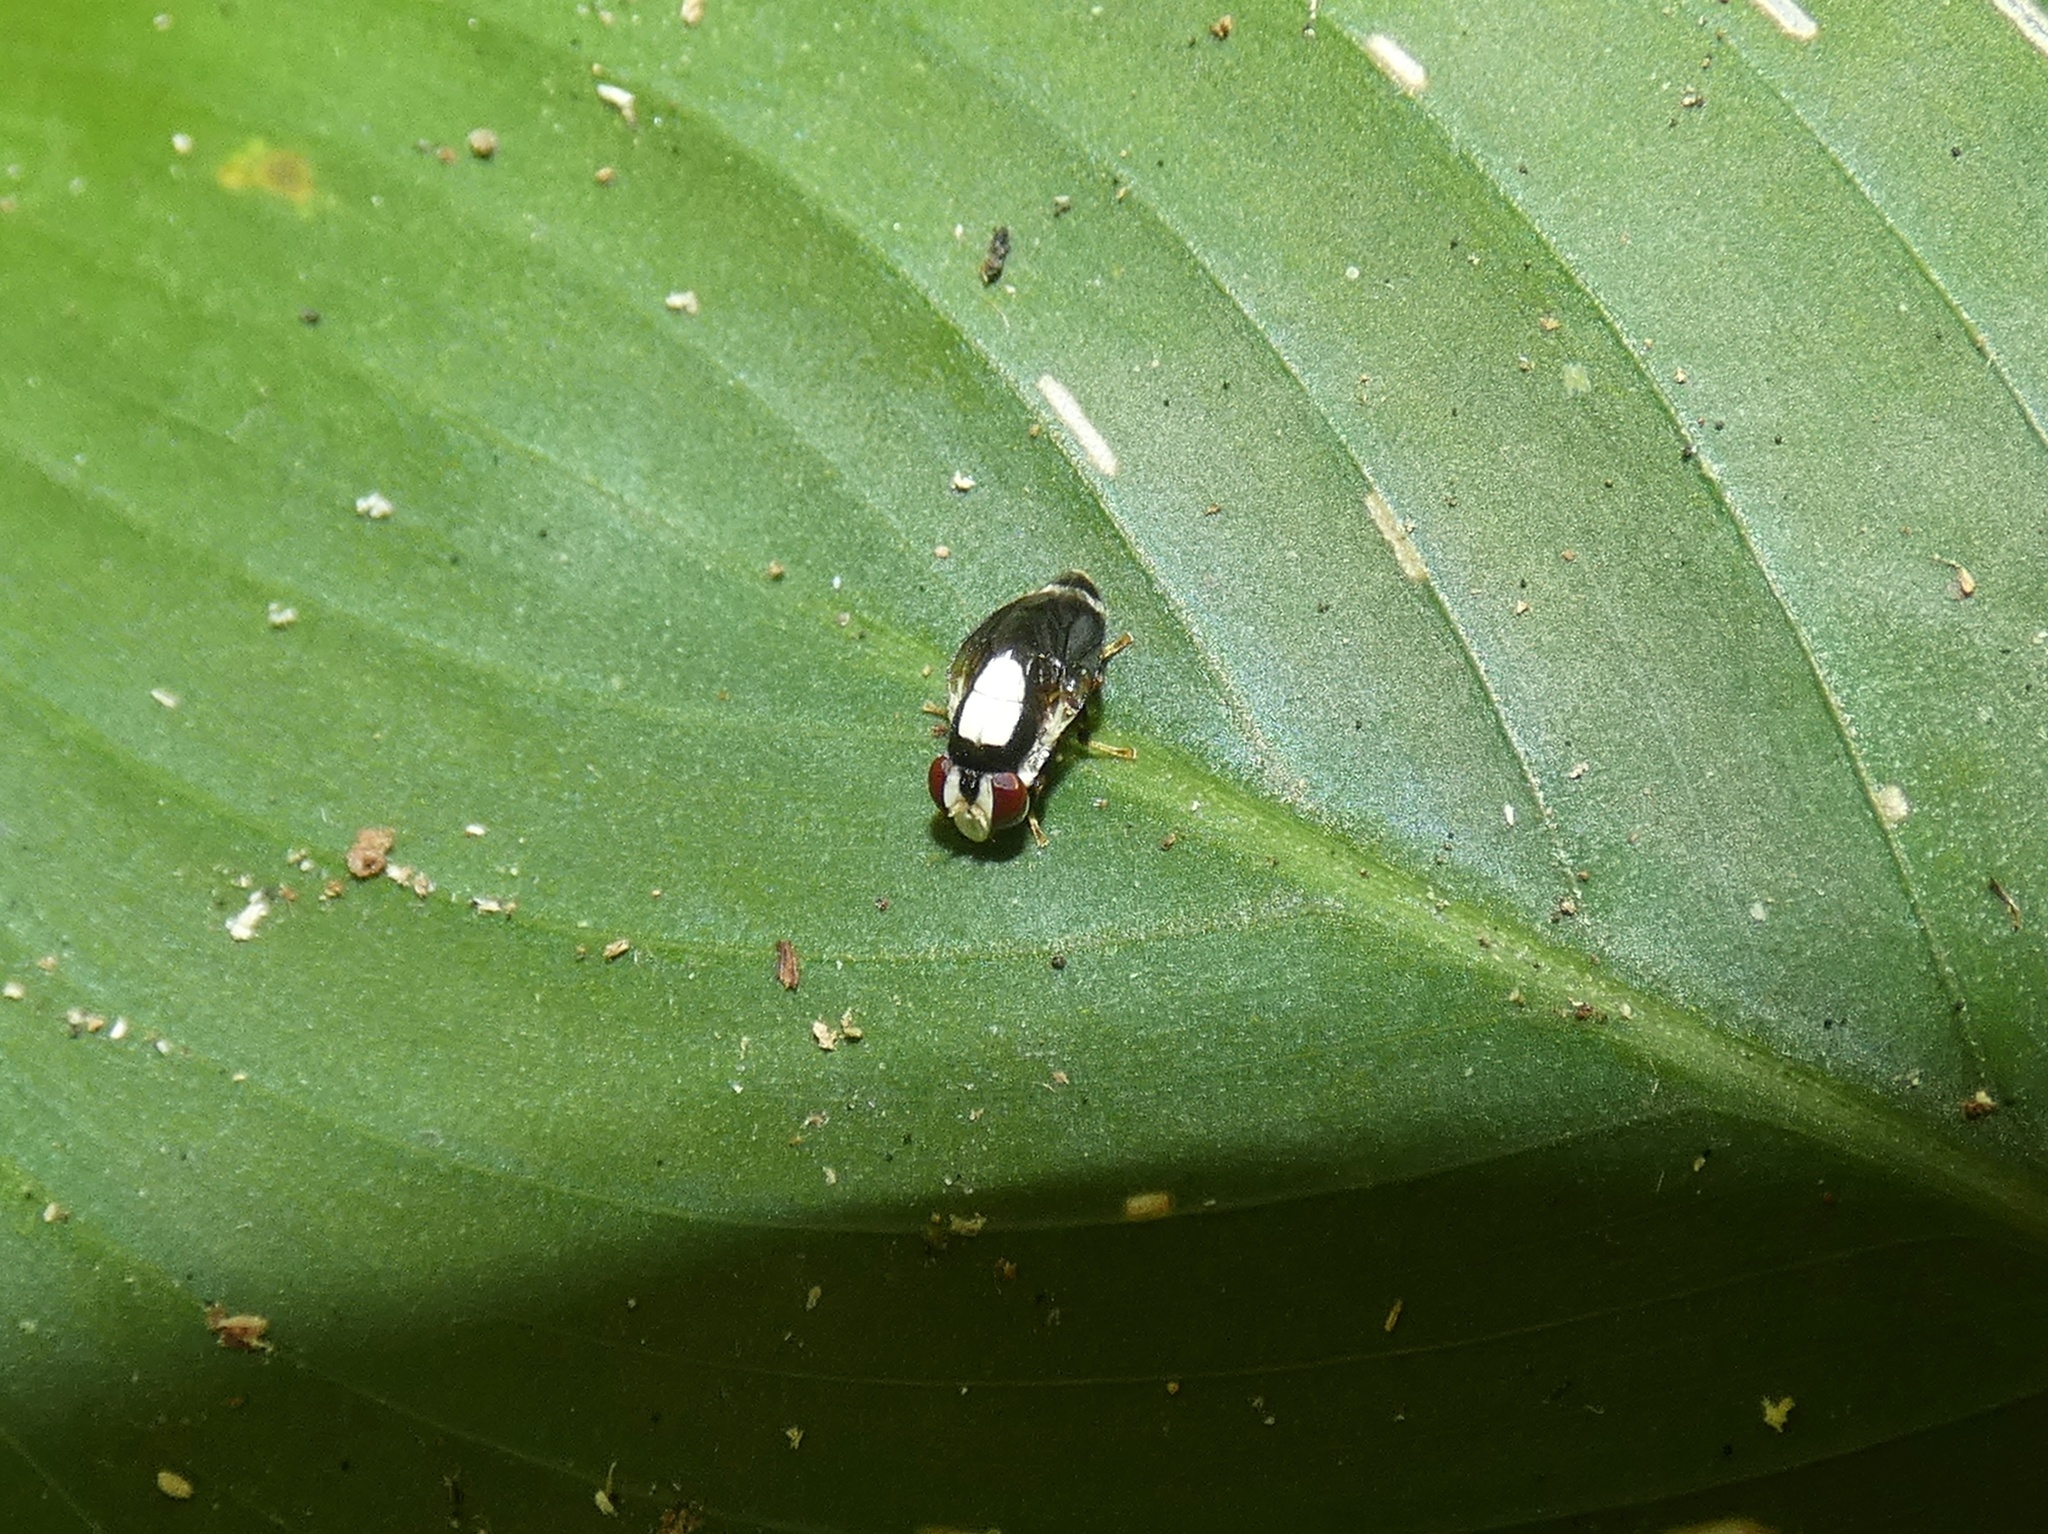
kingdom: Animalia
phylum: Arthropoda
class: Insecta
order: Diptera
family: Periscelididae
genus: Scutops
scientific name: Scutops chapmani
